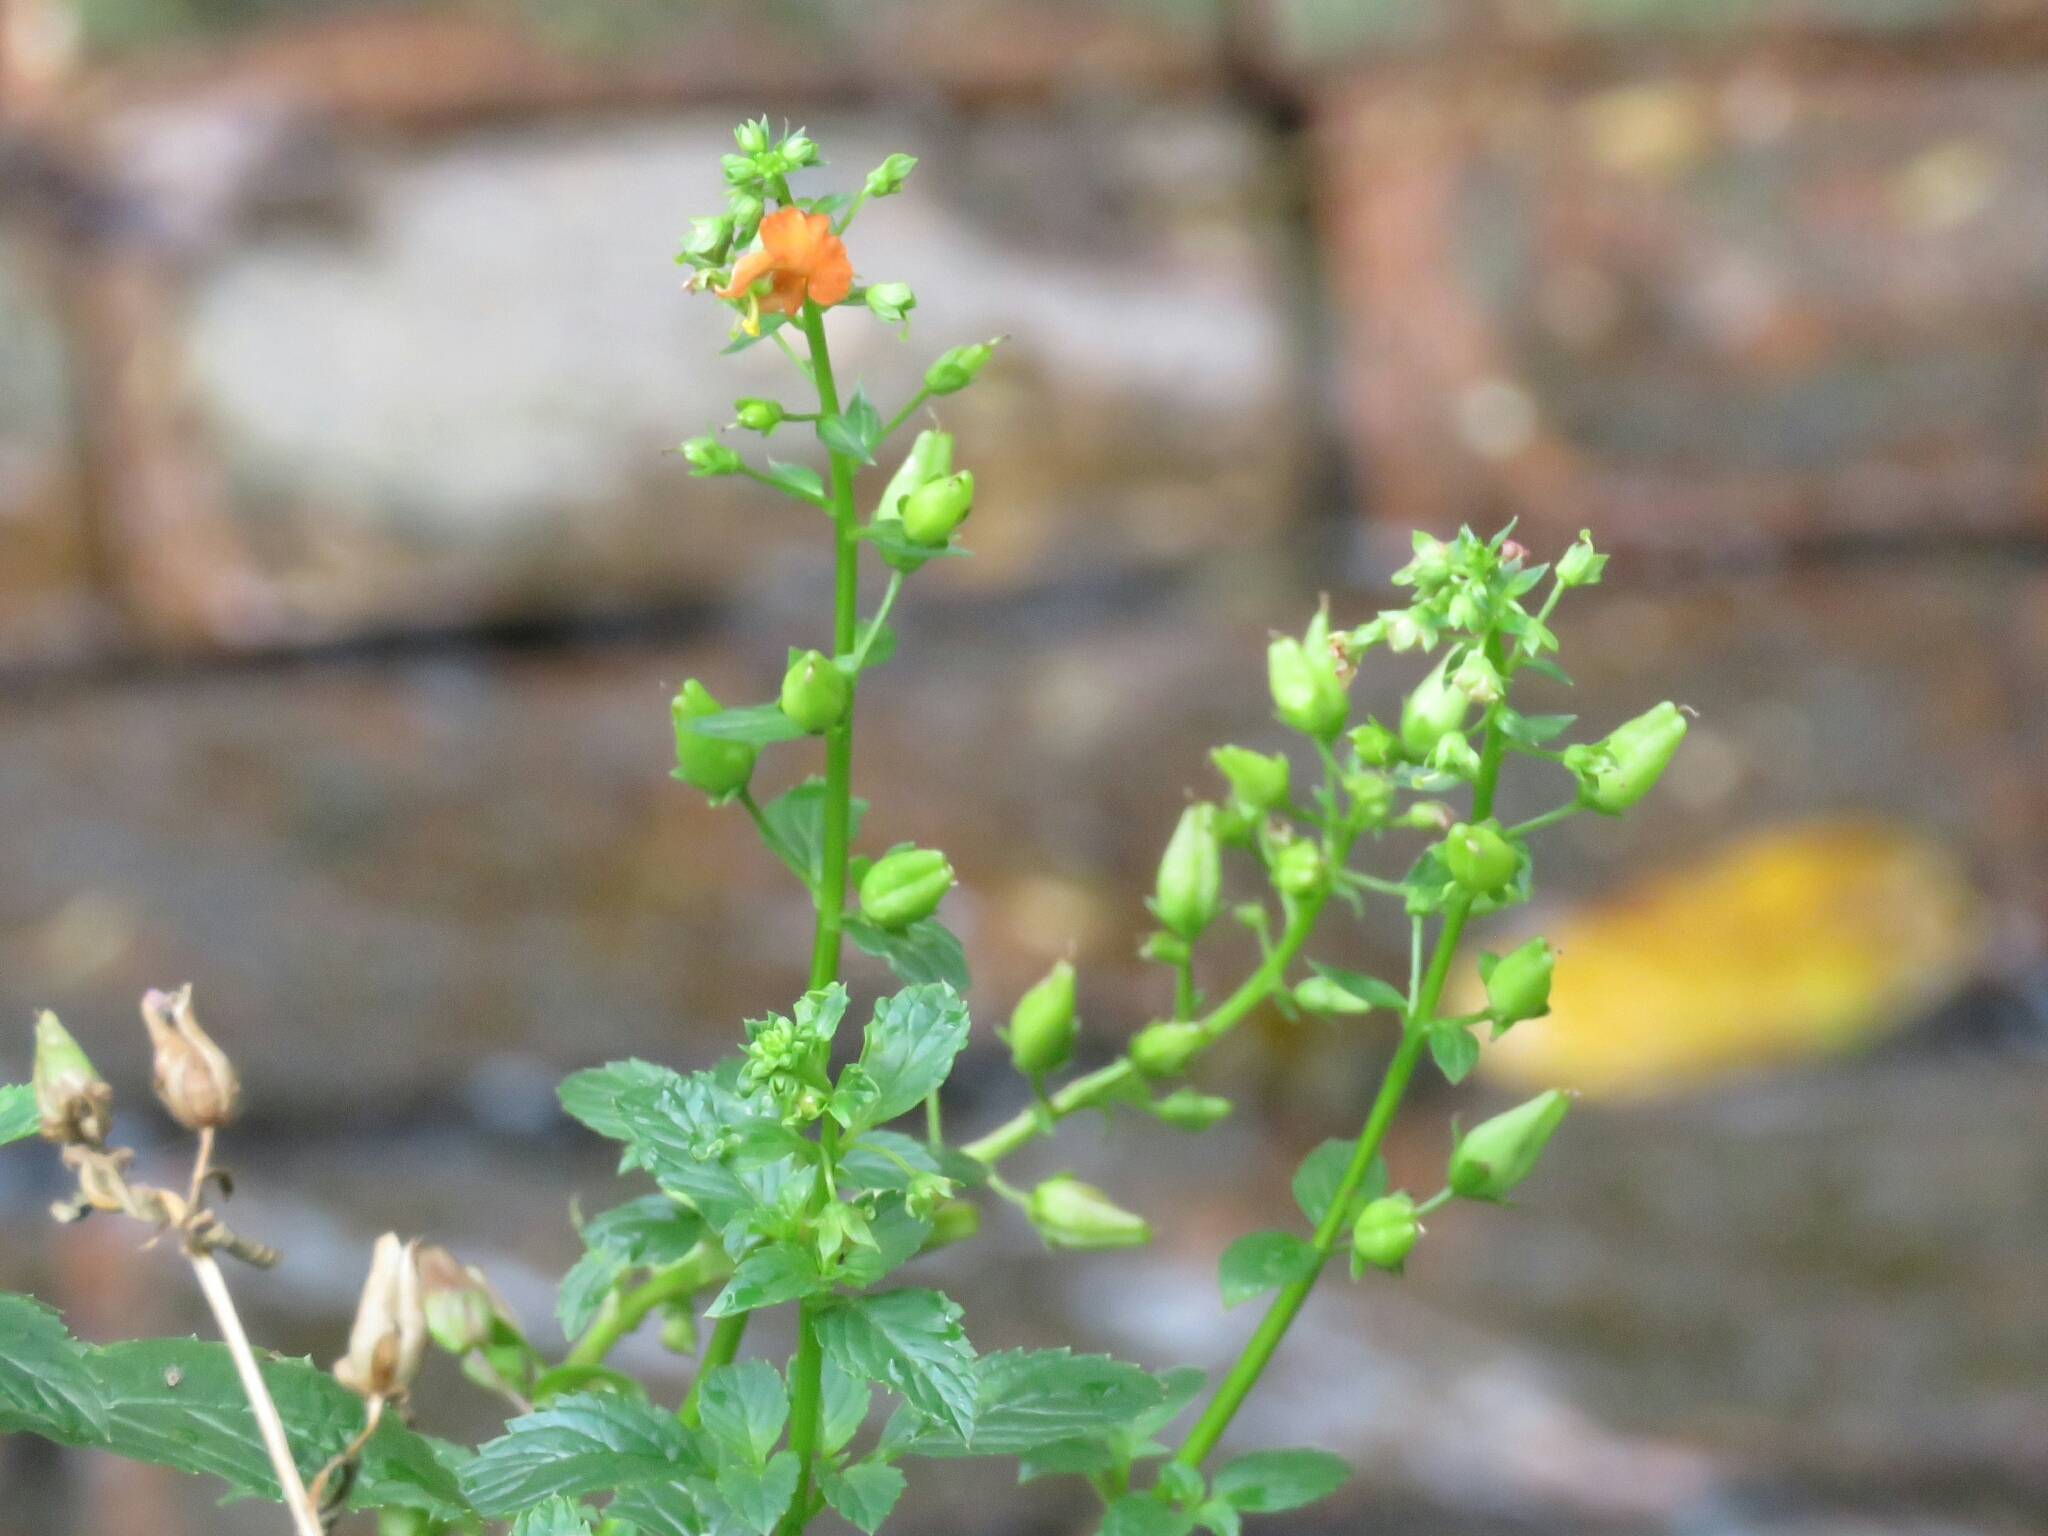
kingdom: Plantae
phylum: Tracheophyta
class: Magnoliopsida
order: Lamiales
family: Scrophulariaceae
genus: Alonsoa
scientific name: Alonsoa meridionalis
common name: Maskflower
